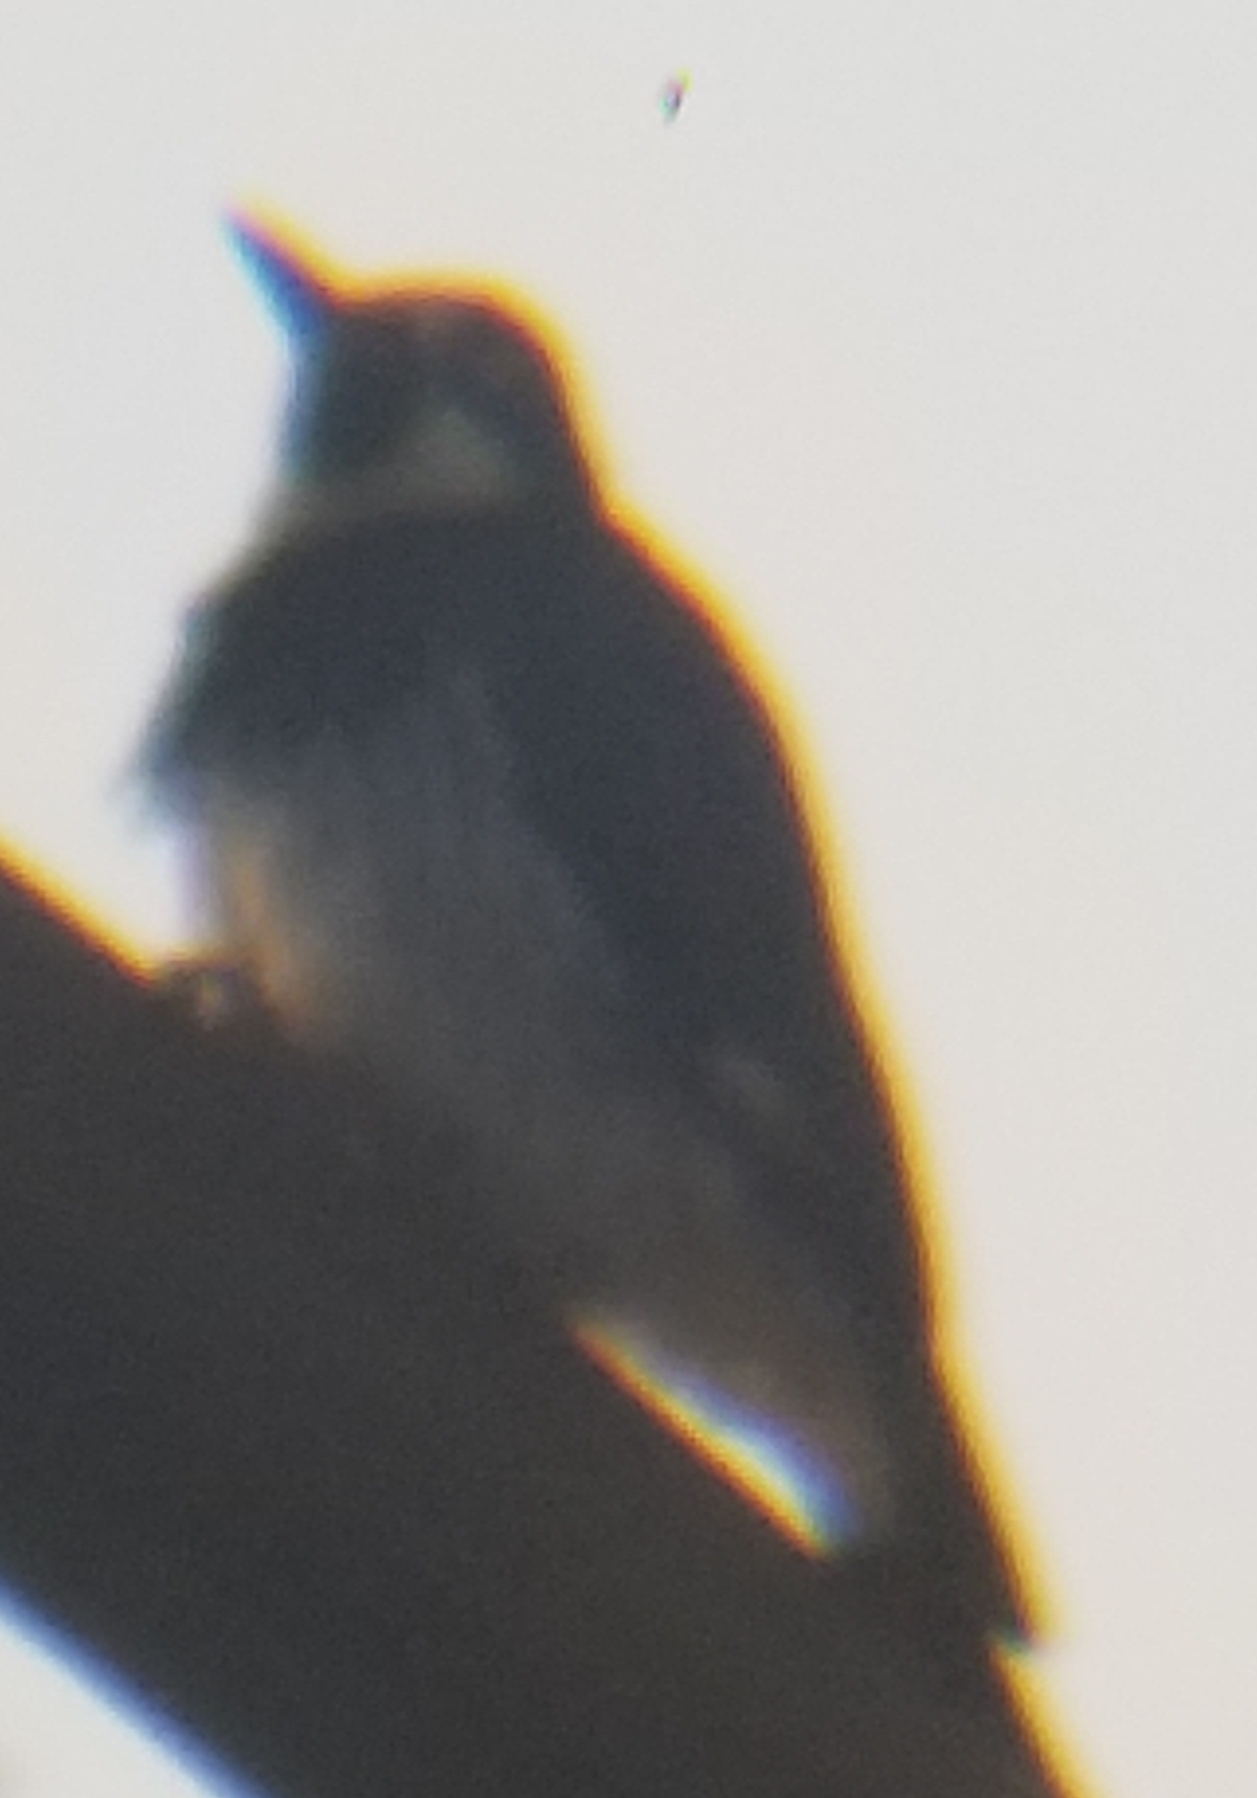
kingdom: Animalia
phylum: Chordata
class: Aves
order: Piciformes
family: Picidae
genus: Melanerpes
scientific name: Melanerpes formicivorus
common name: Acorn woodpecker
